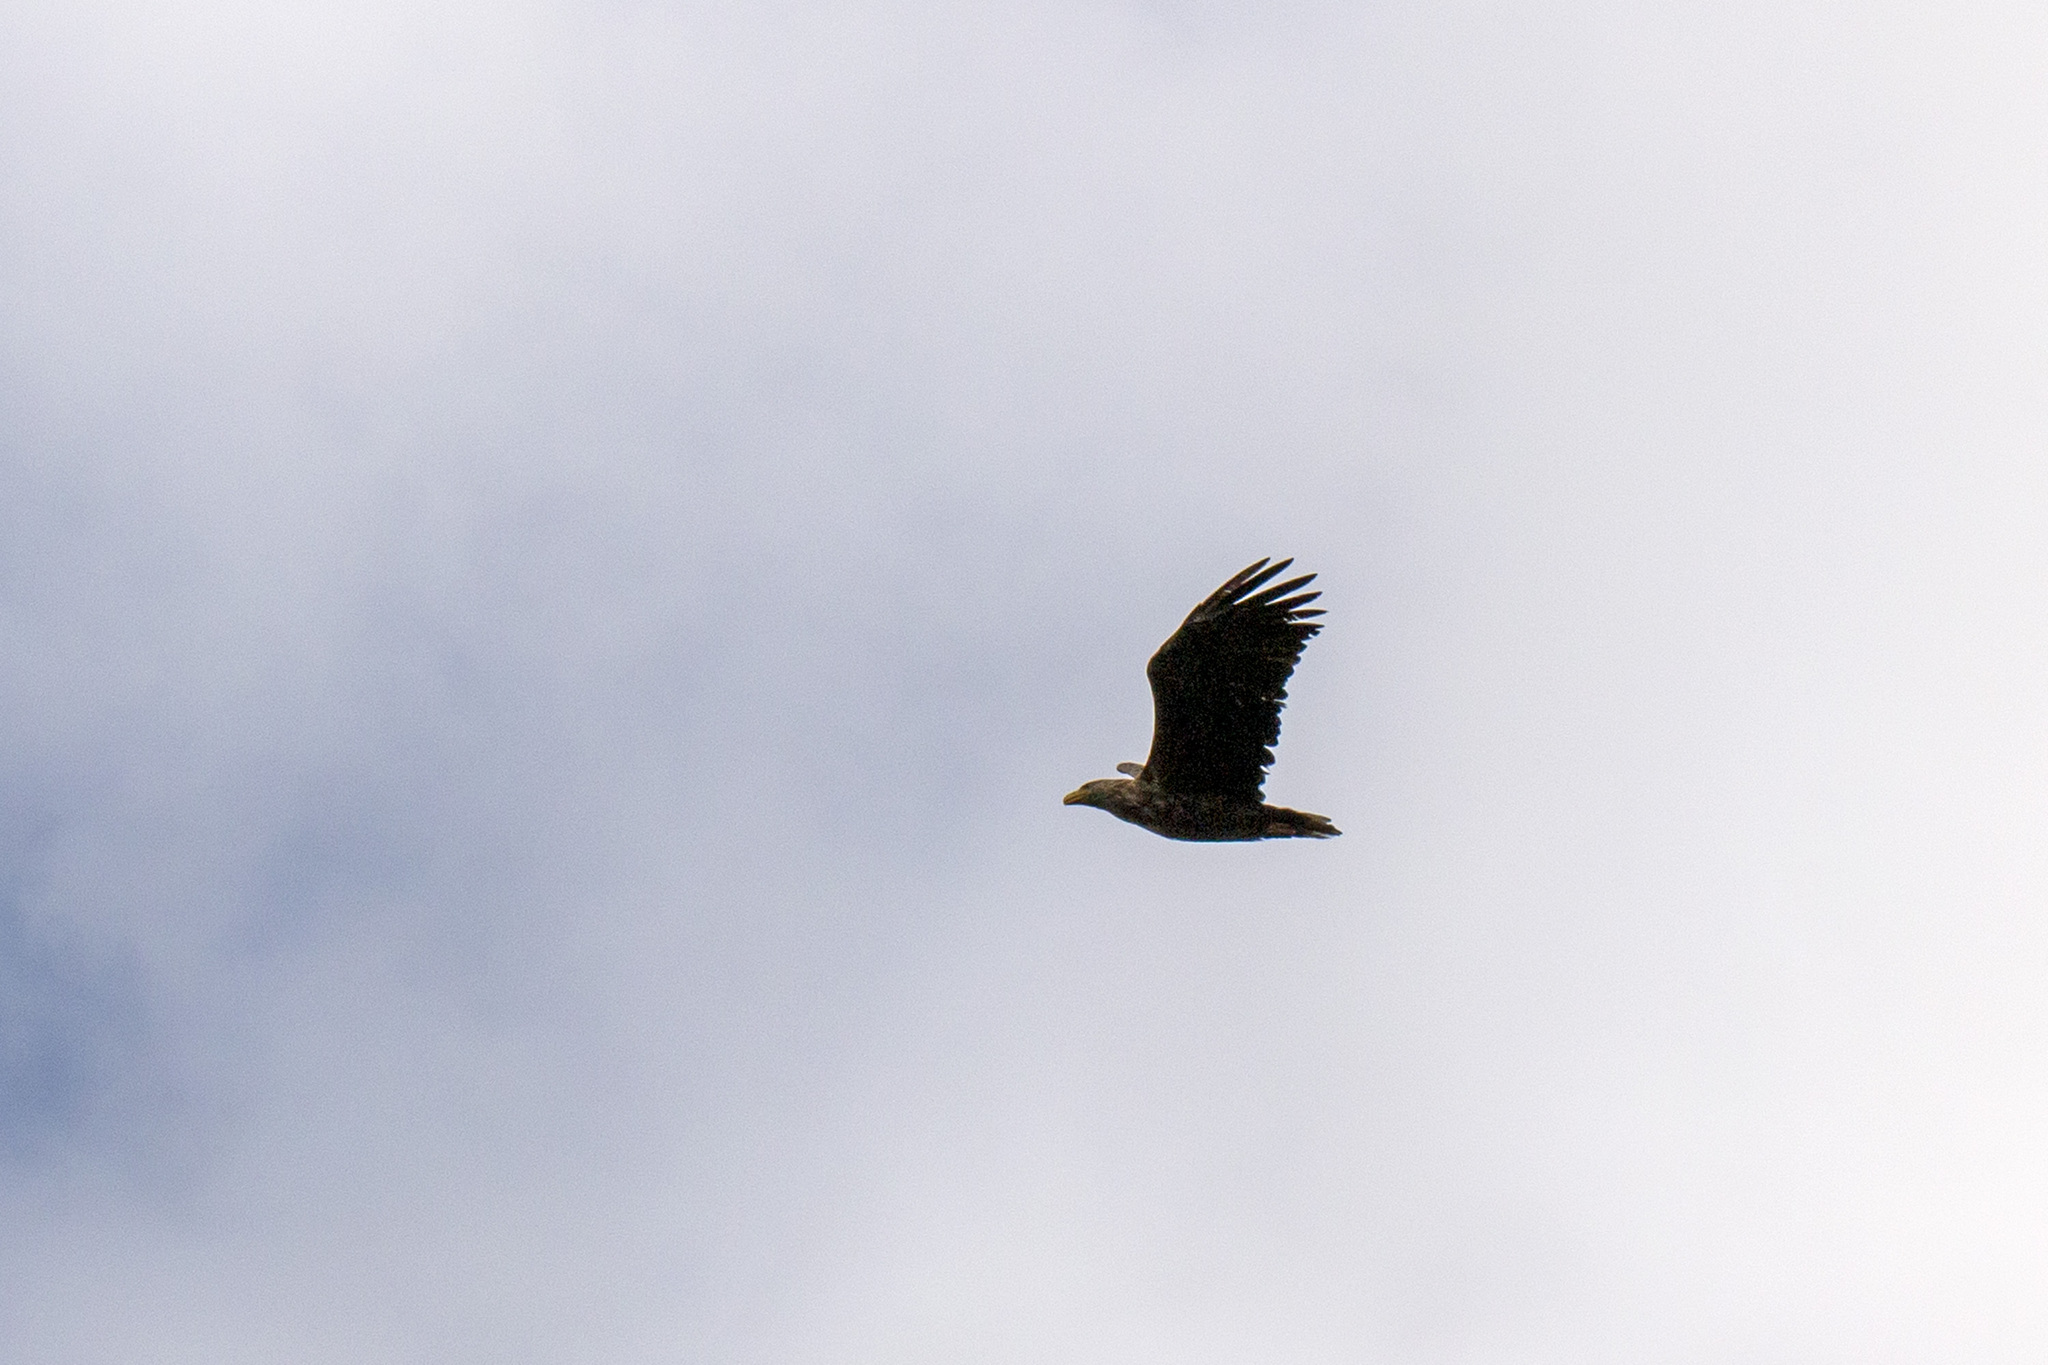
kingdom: Animalia
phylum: Chordata
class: Aves
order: Accipitriformes
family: Accipitridae
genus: Haliaeetus
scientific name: Haliaeetus albicilla
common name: White-tailed eagle
